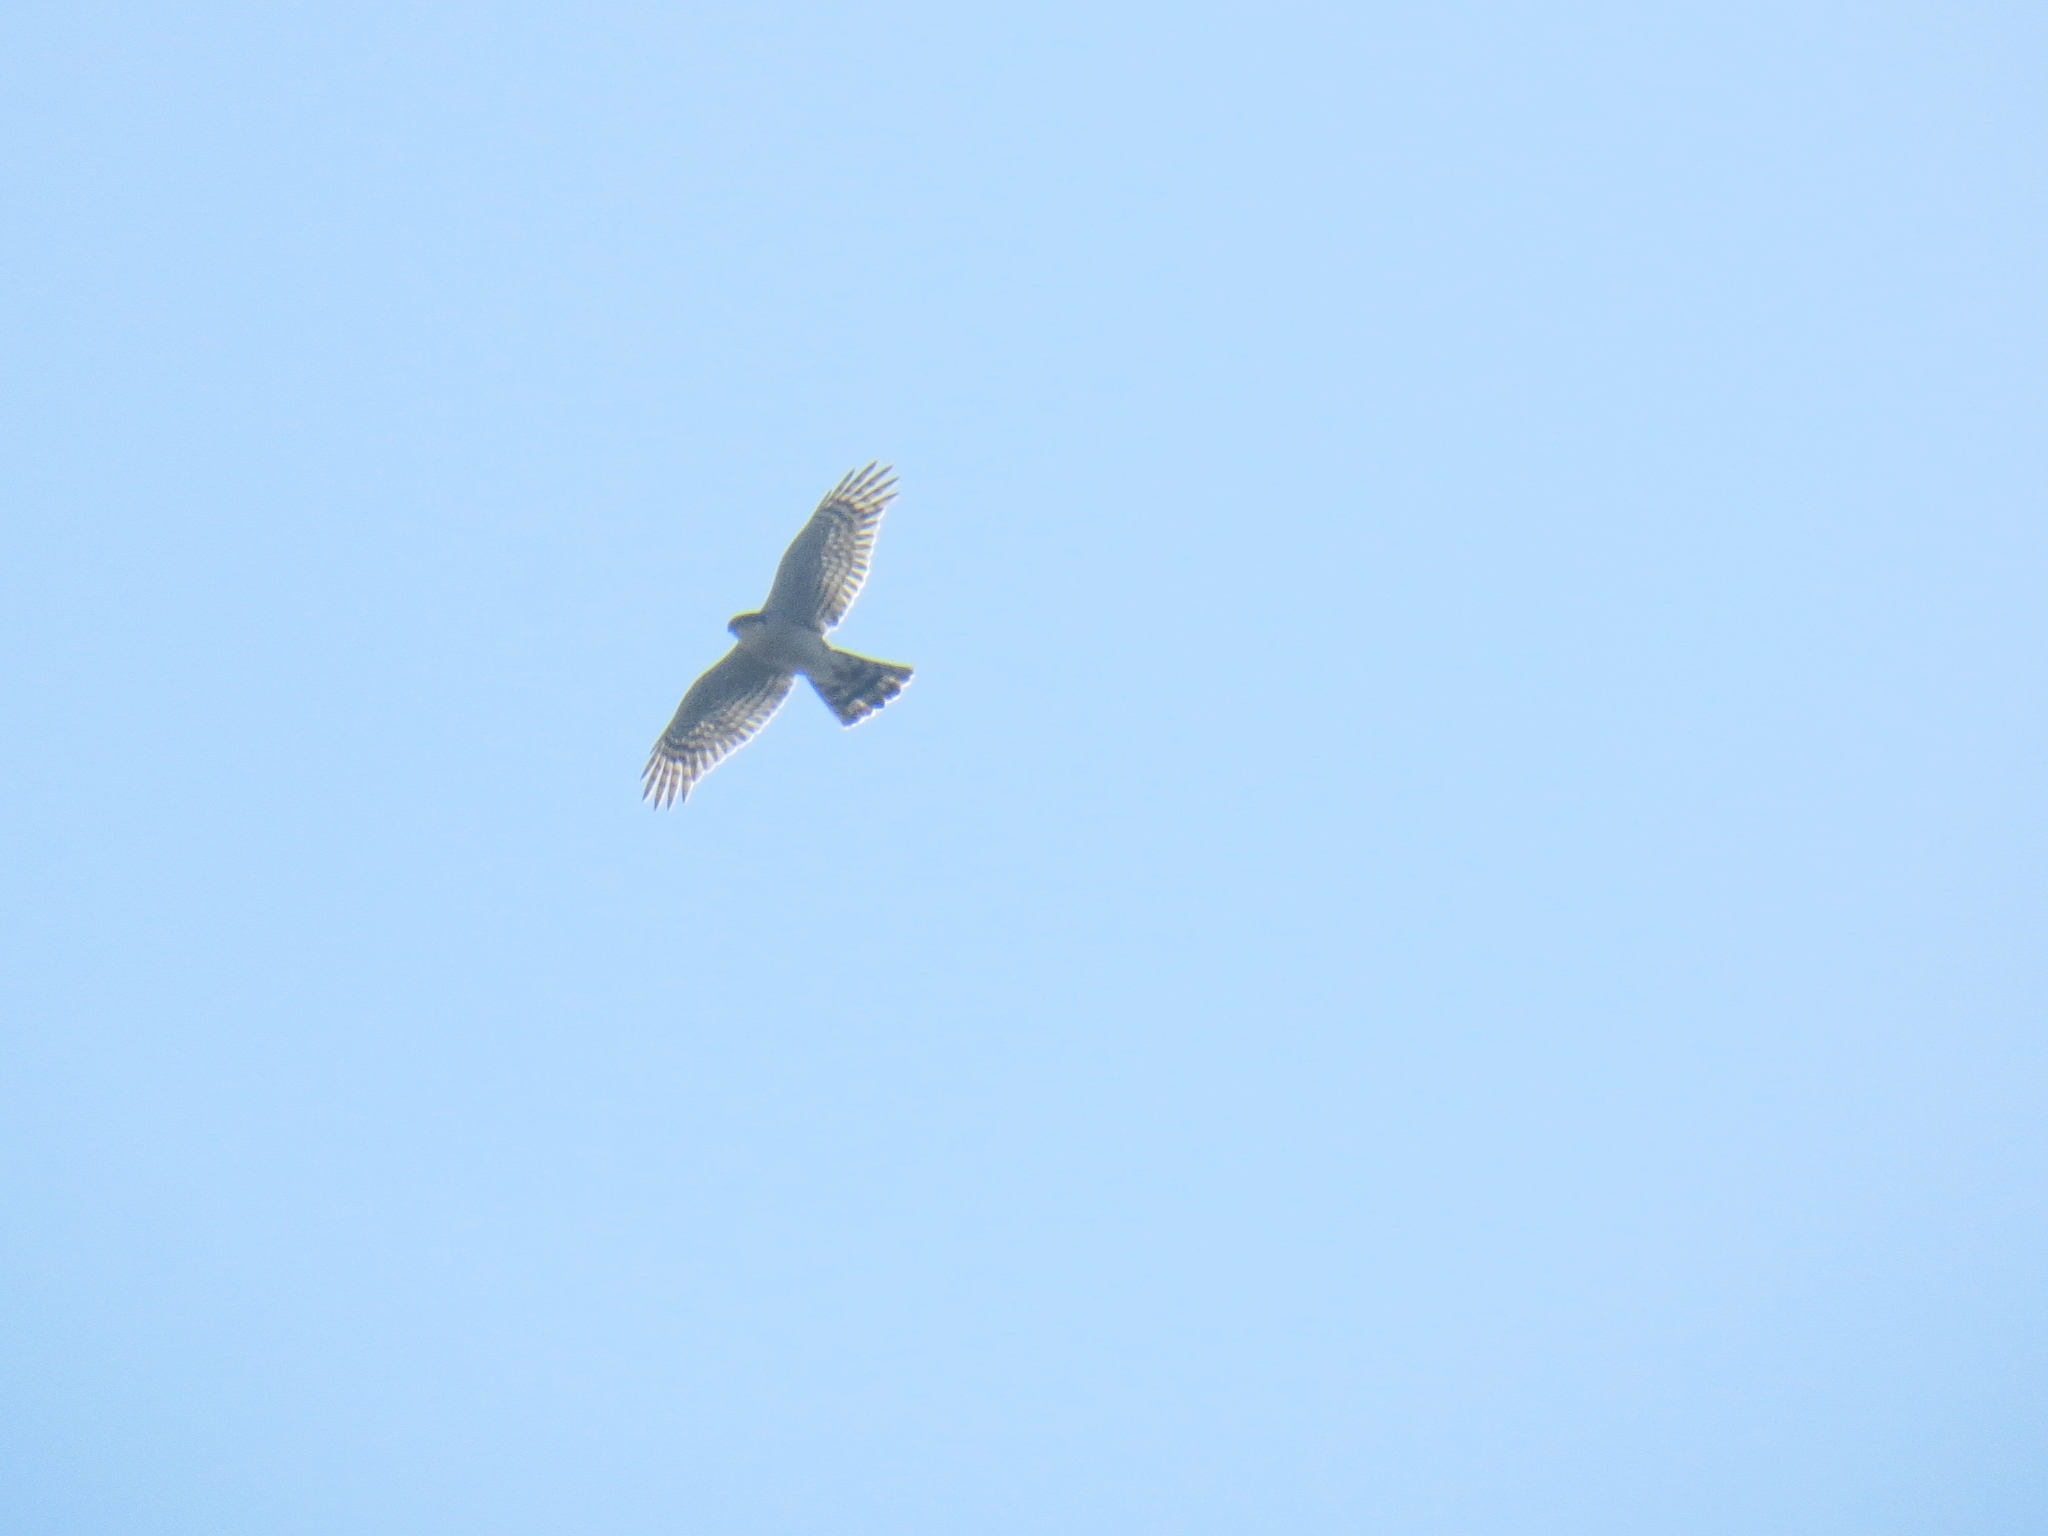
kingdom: Animalia
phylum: Chordata
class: Aves
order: Accipitriformes
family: Accipitridae
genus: Accipiter
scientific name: Accipiter nisus
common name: Eurasian sparrowhawk
